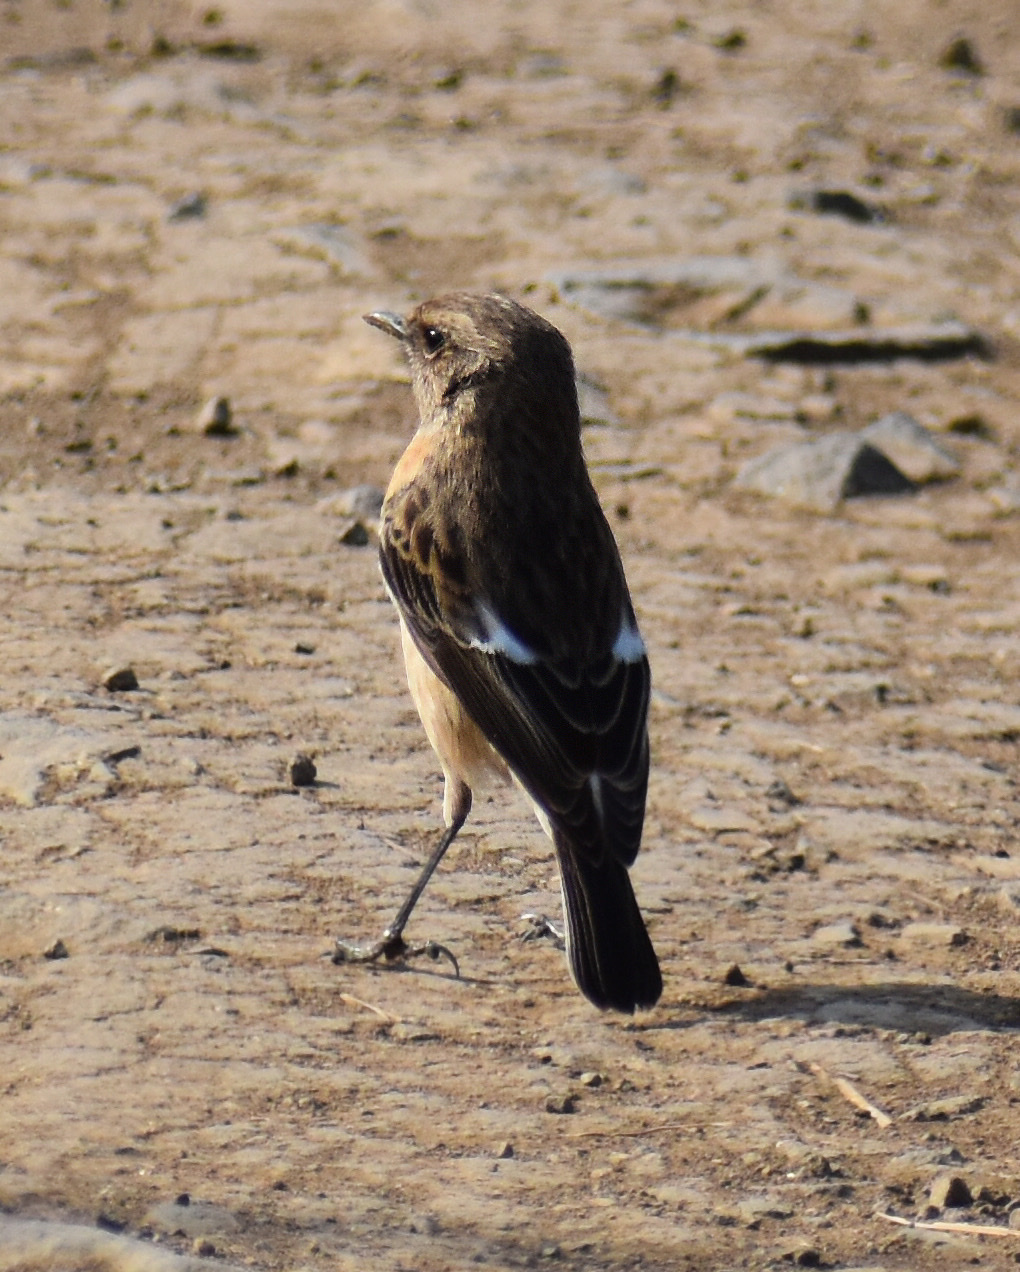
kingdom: Animalia
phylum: Chordata
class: Aves
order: Passeriformes
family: Muscicapidae
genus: Saxicola
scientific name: Saxicola torquatus
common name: African stonechat
